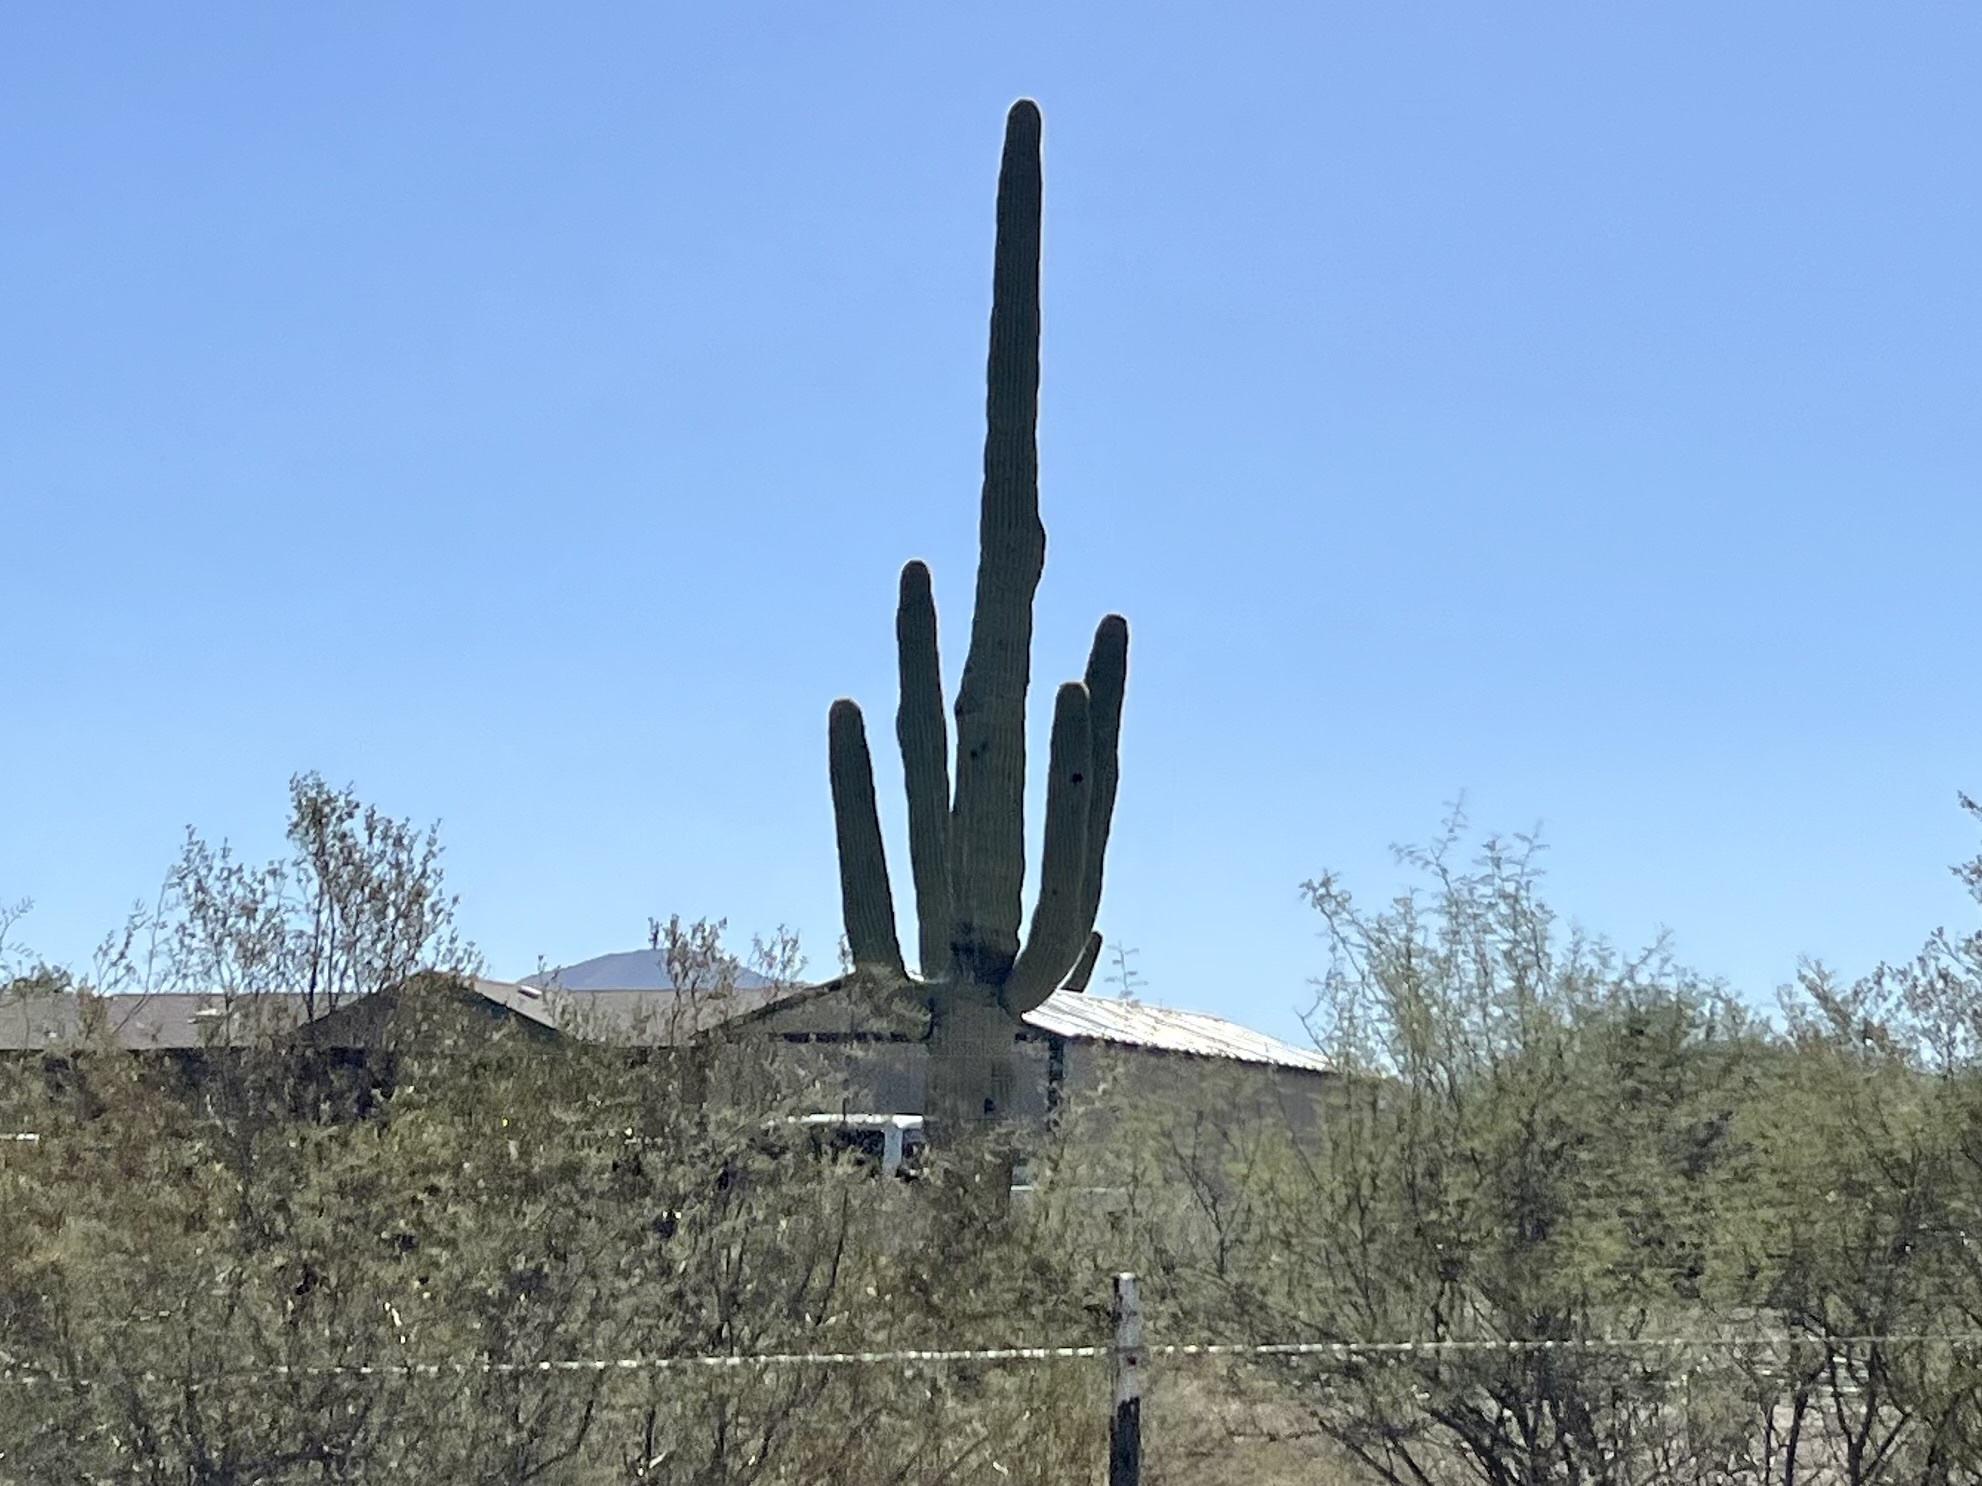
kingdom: Plantae
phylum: Tracheophyta
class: Magnoliopsida
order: Caryophyllales
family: Cactaceae
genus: Carnegiea
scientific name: Carnegiea gigantea
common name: Saguaro
